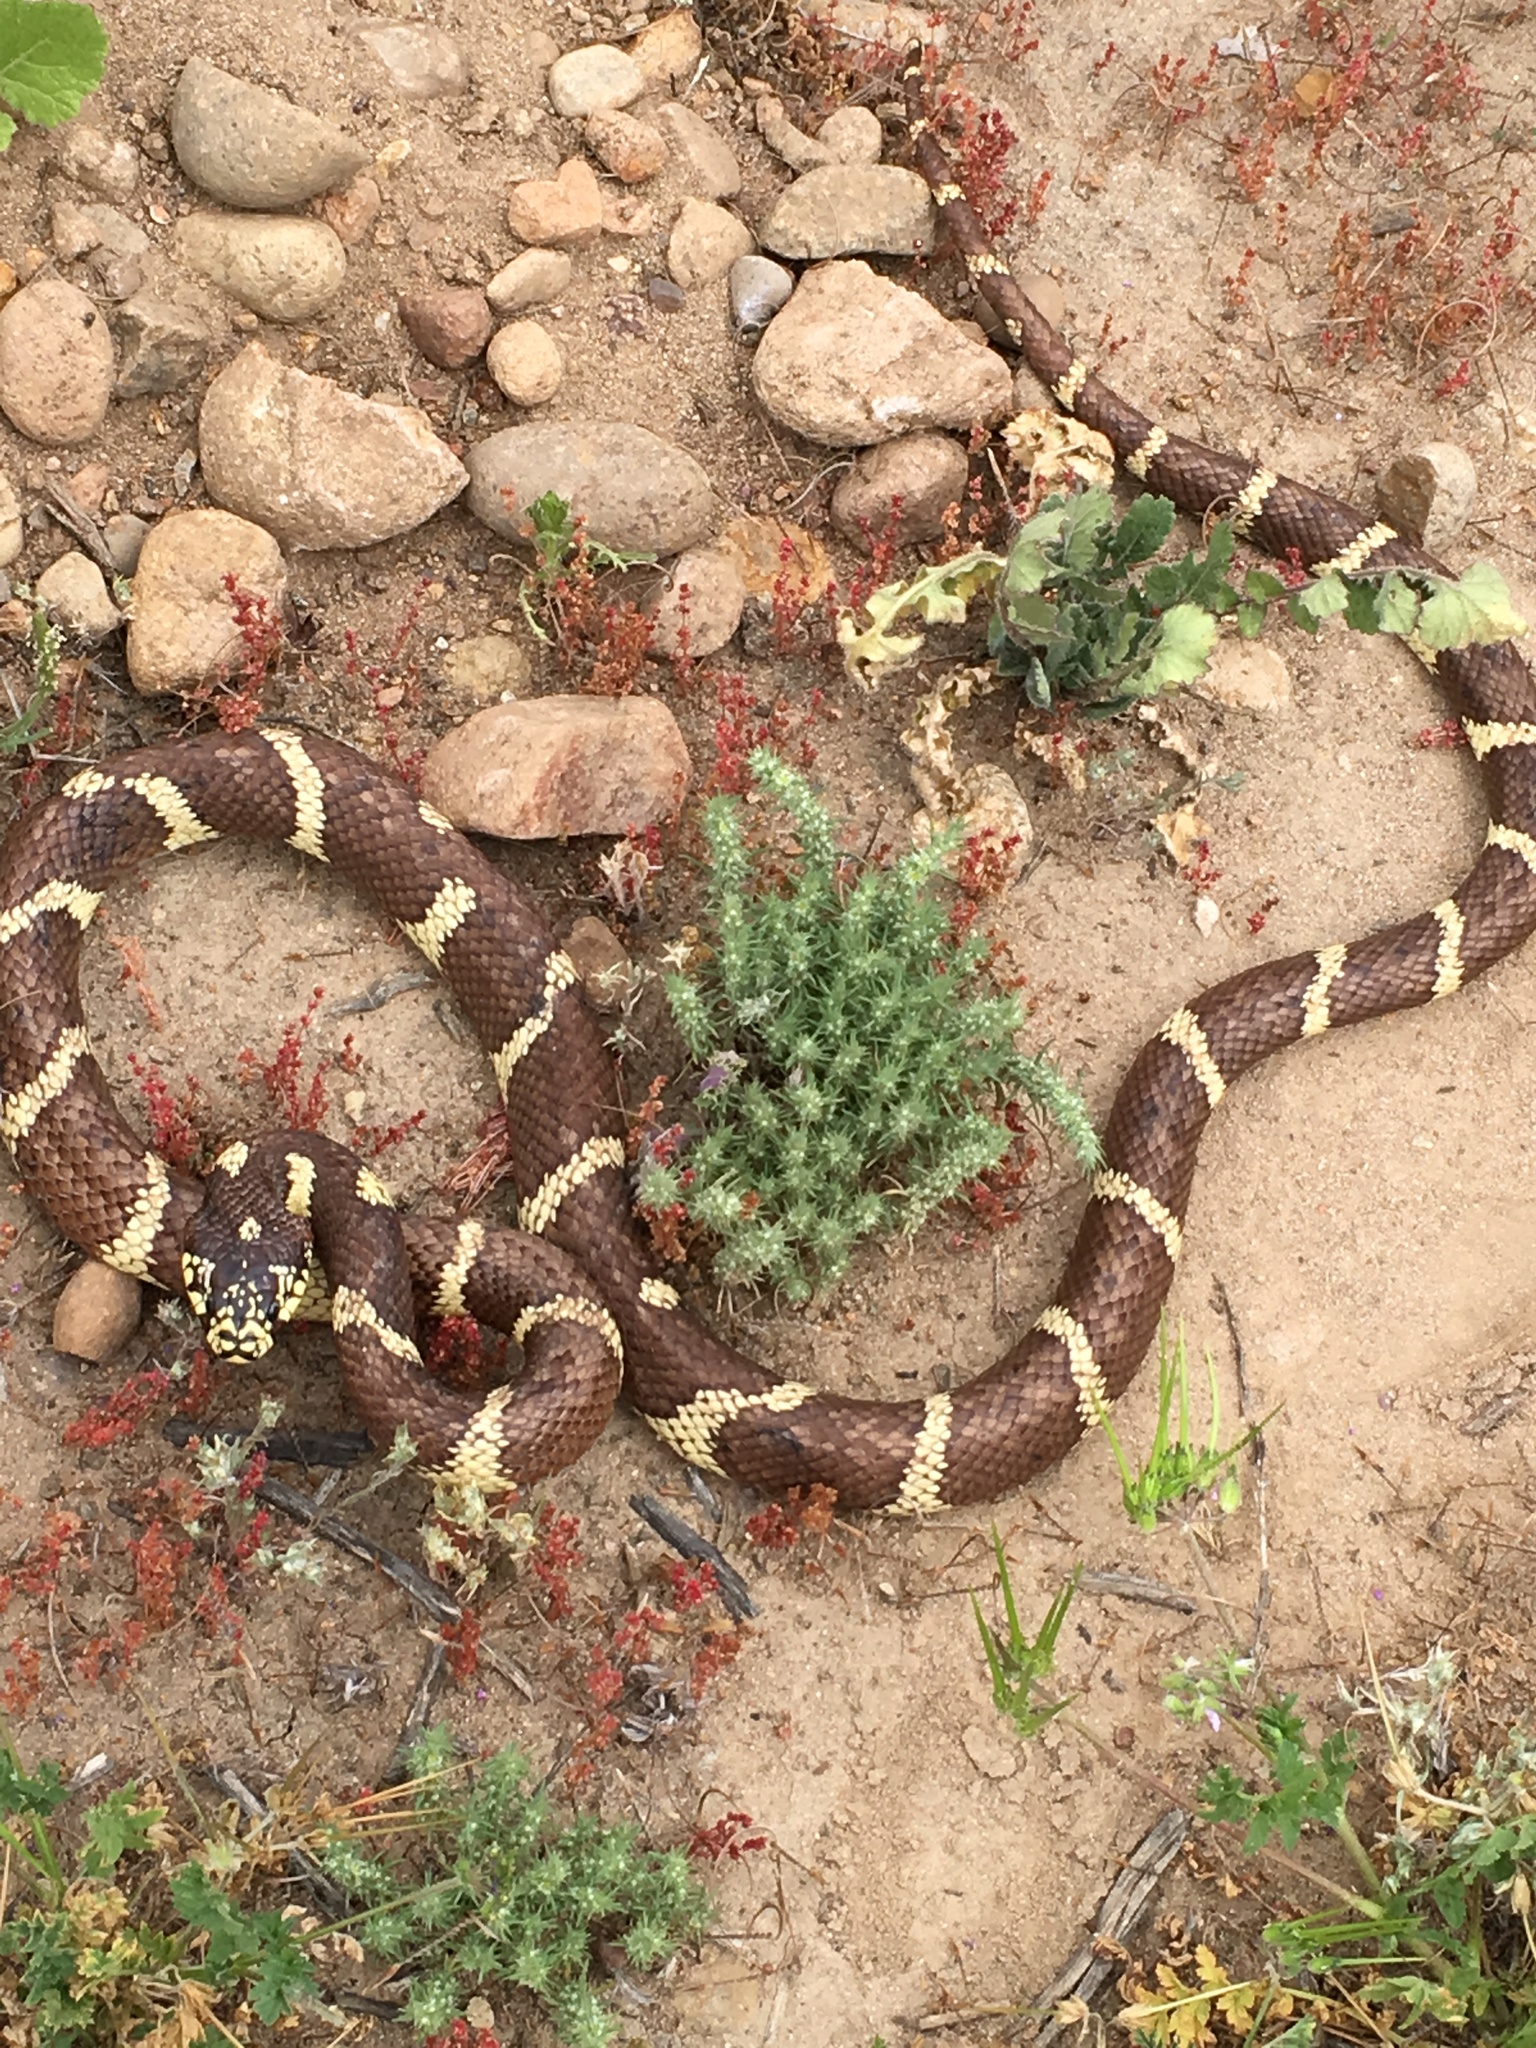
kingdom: Animalia
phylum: Chordata
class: Squamata
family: Colubridae
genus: Lampropeltis
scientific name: Lampropeltis californiae
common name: California kingsnake
